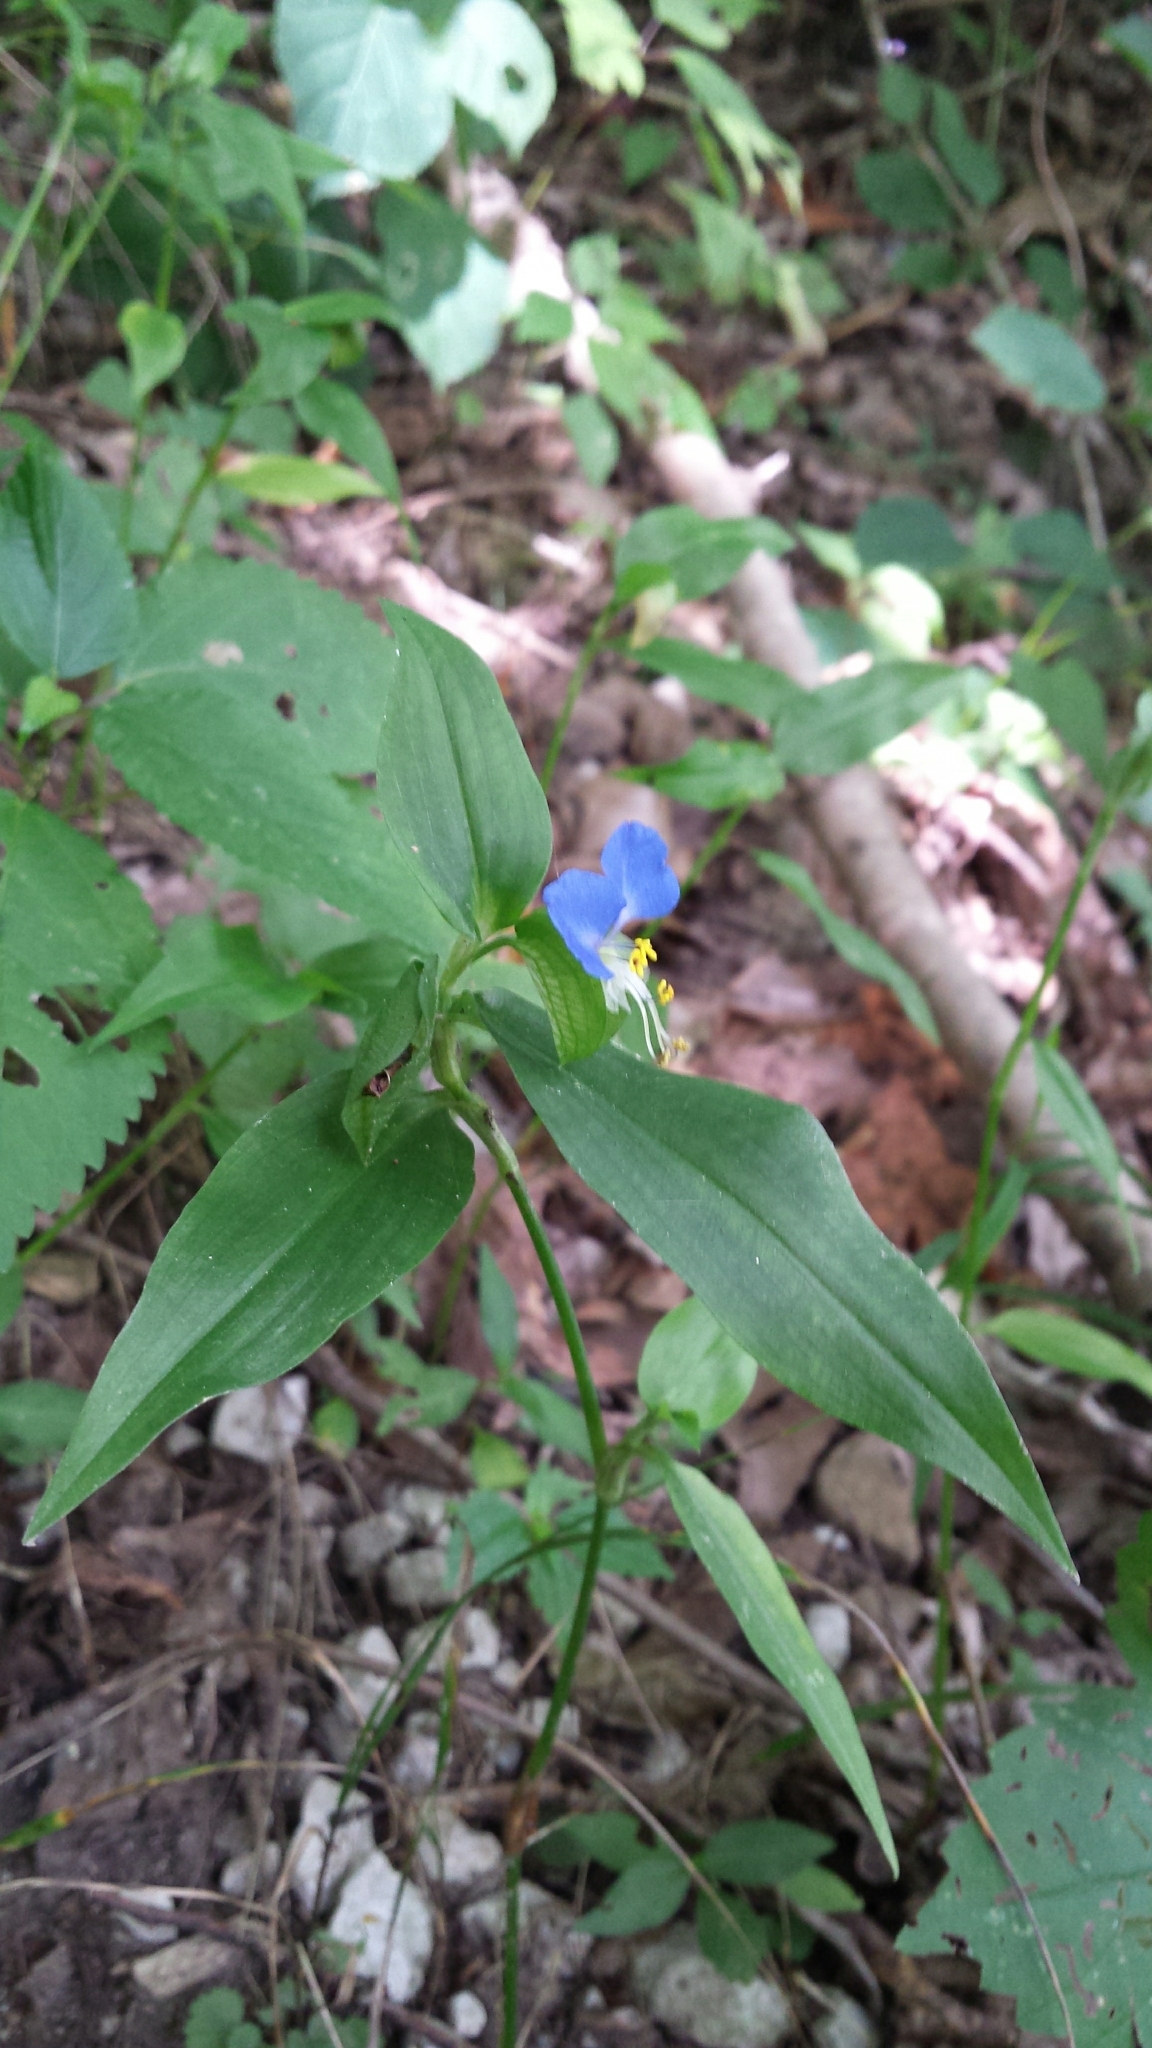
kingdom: Plantae
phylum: Tracheophyta
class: Liliopsida
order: Commelinales
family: Commelinaceae
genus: Commelina
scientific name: Commelina communis
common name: Asiatic dayflower
